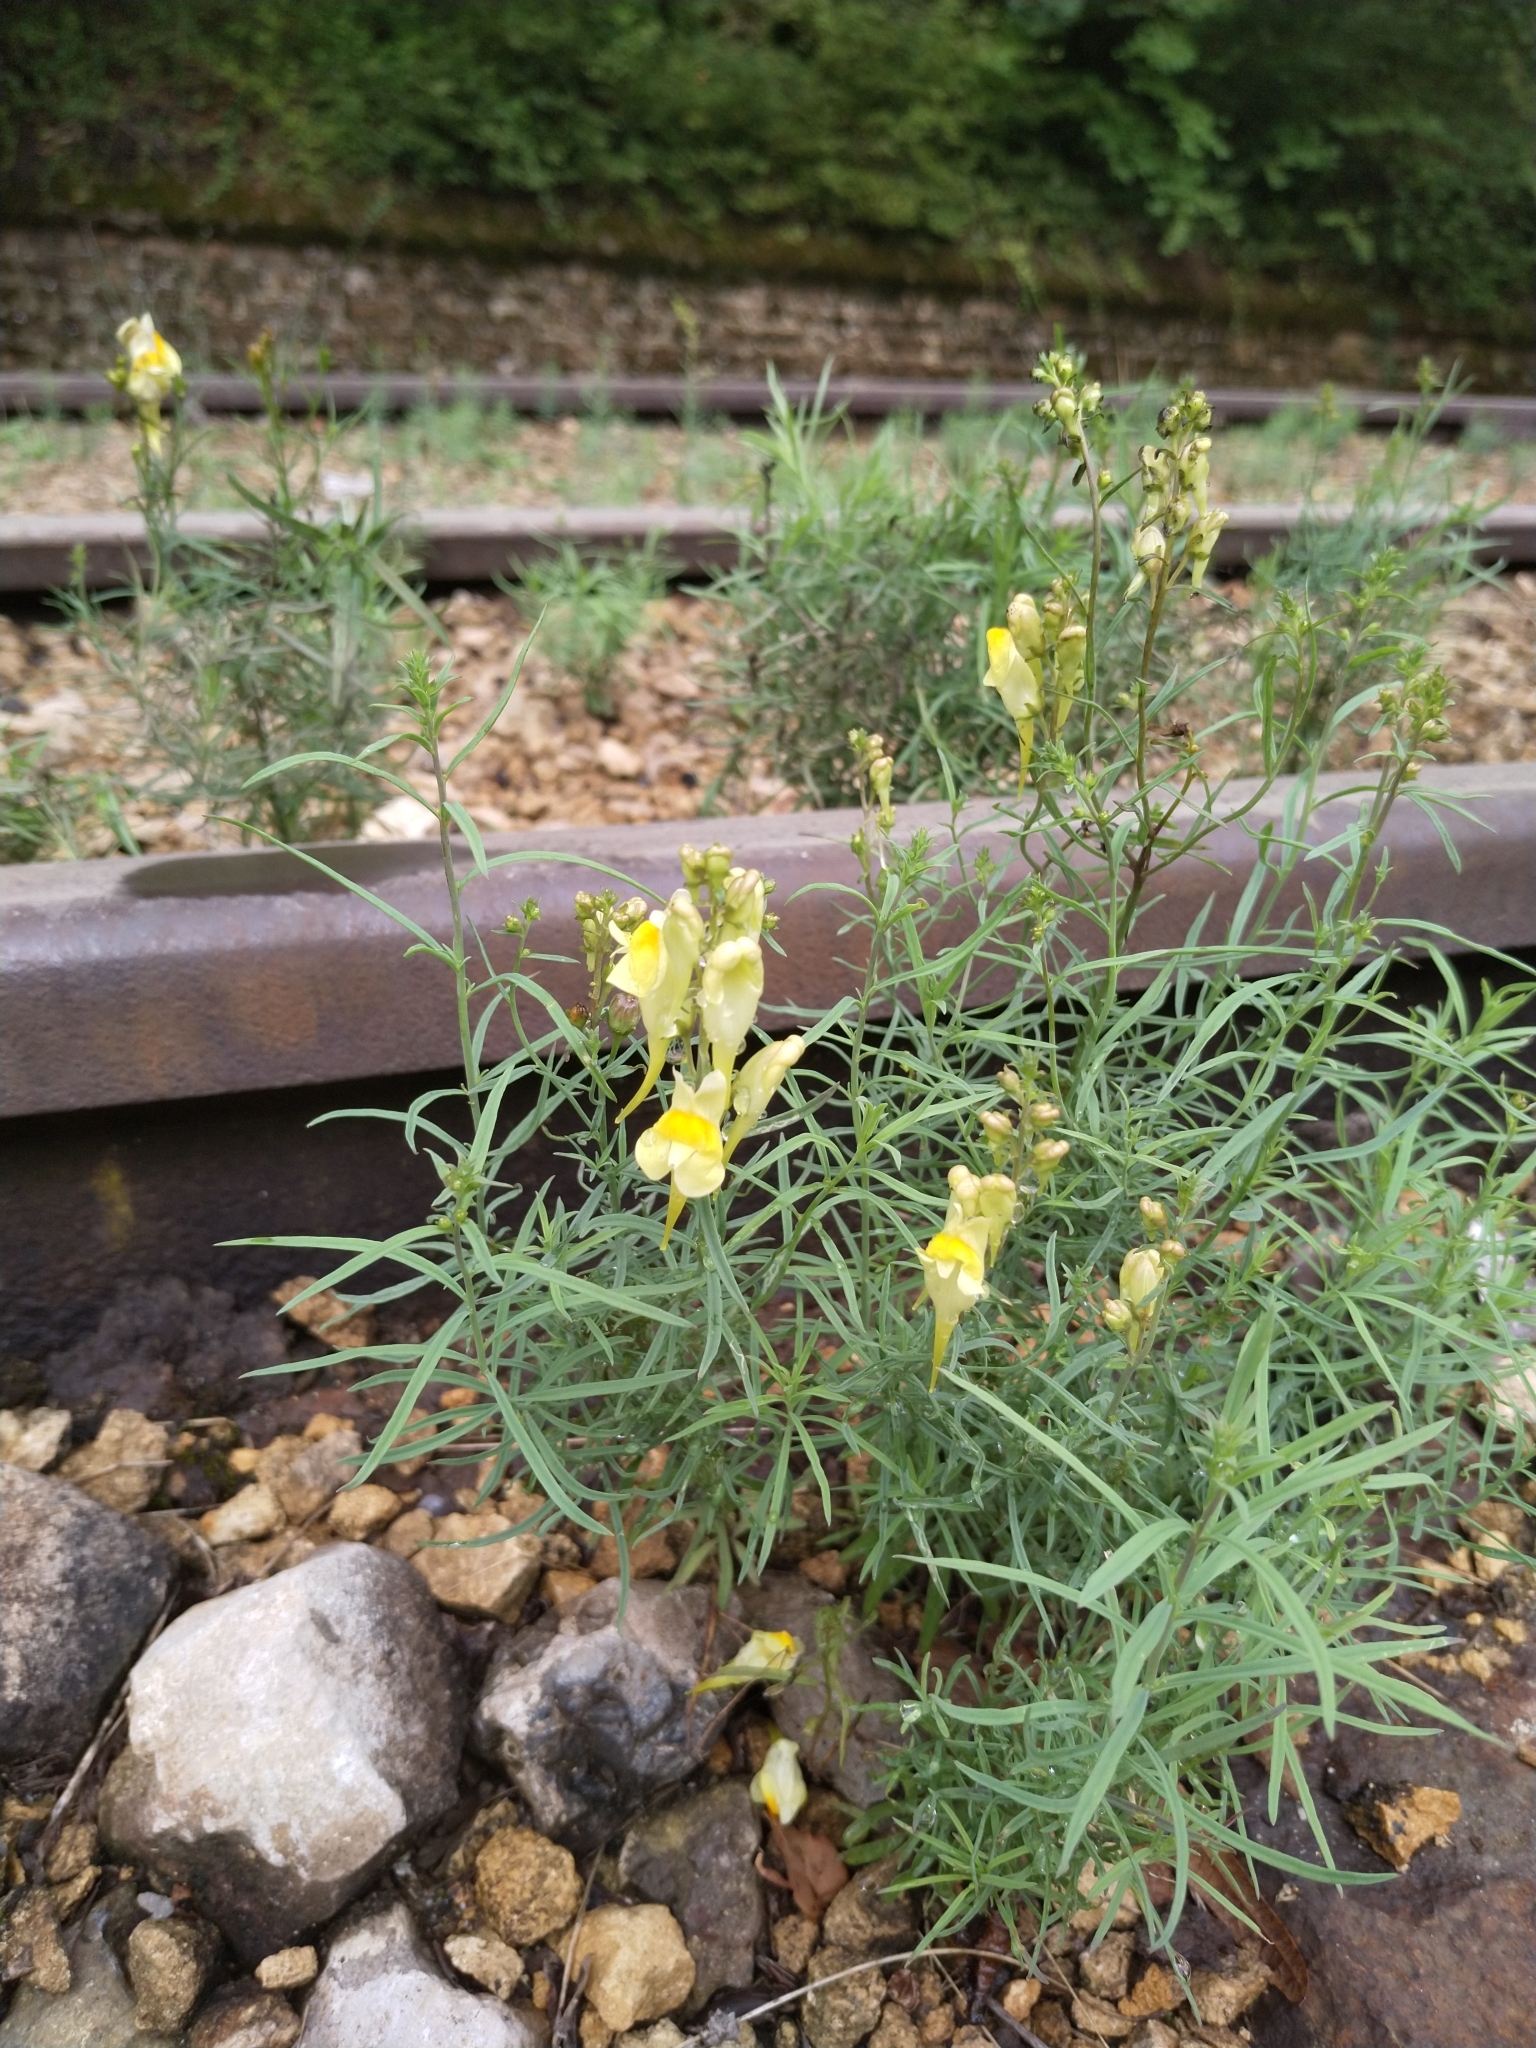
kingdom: Plantae
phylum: Tracheophyta
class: Magnoliopsida
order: Lamiales
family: Plantaginaceae
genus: Linaria
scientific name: Linaria vulgaris
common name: Butter and eggs
